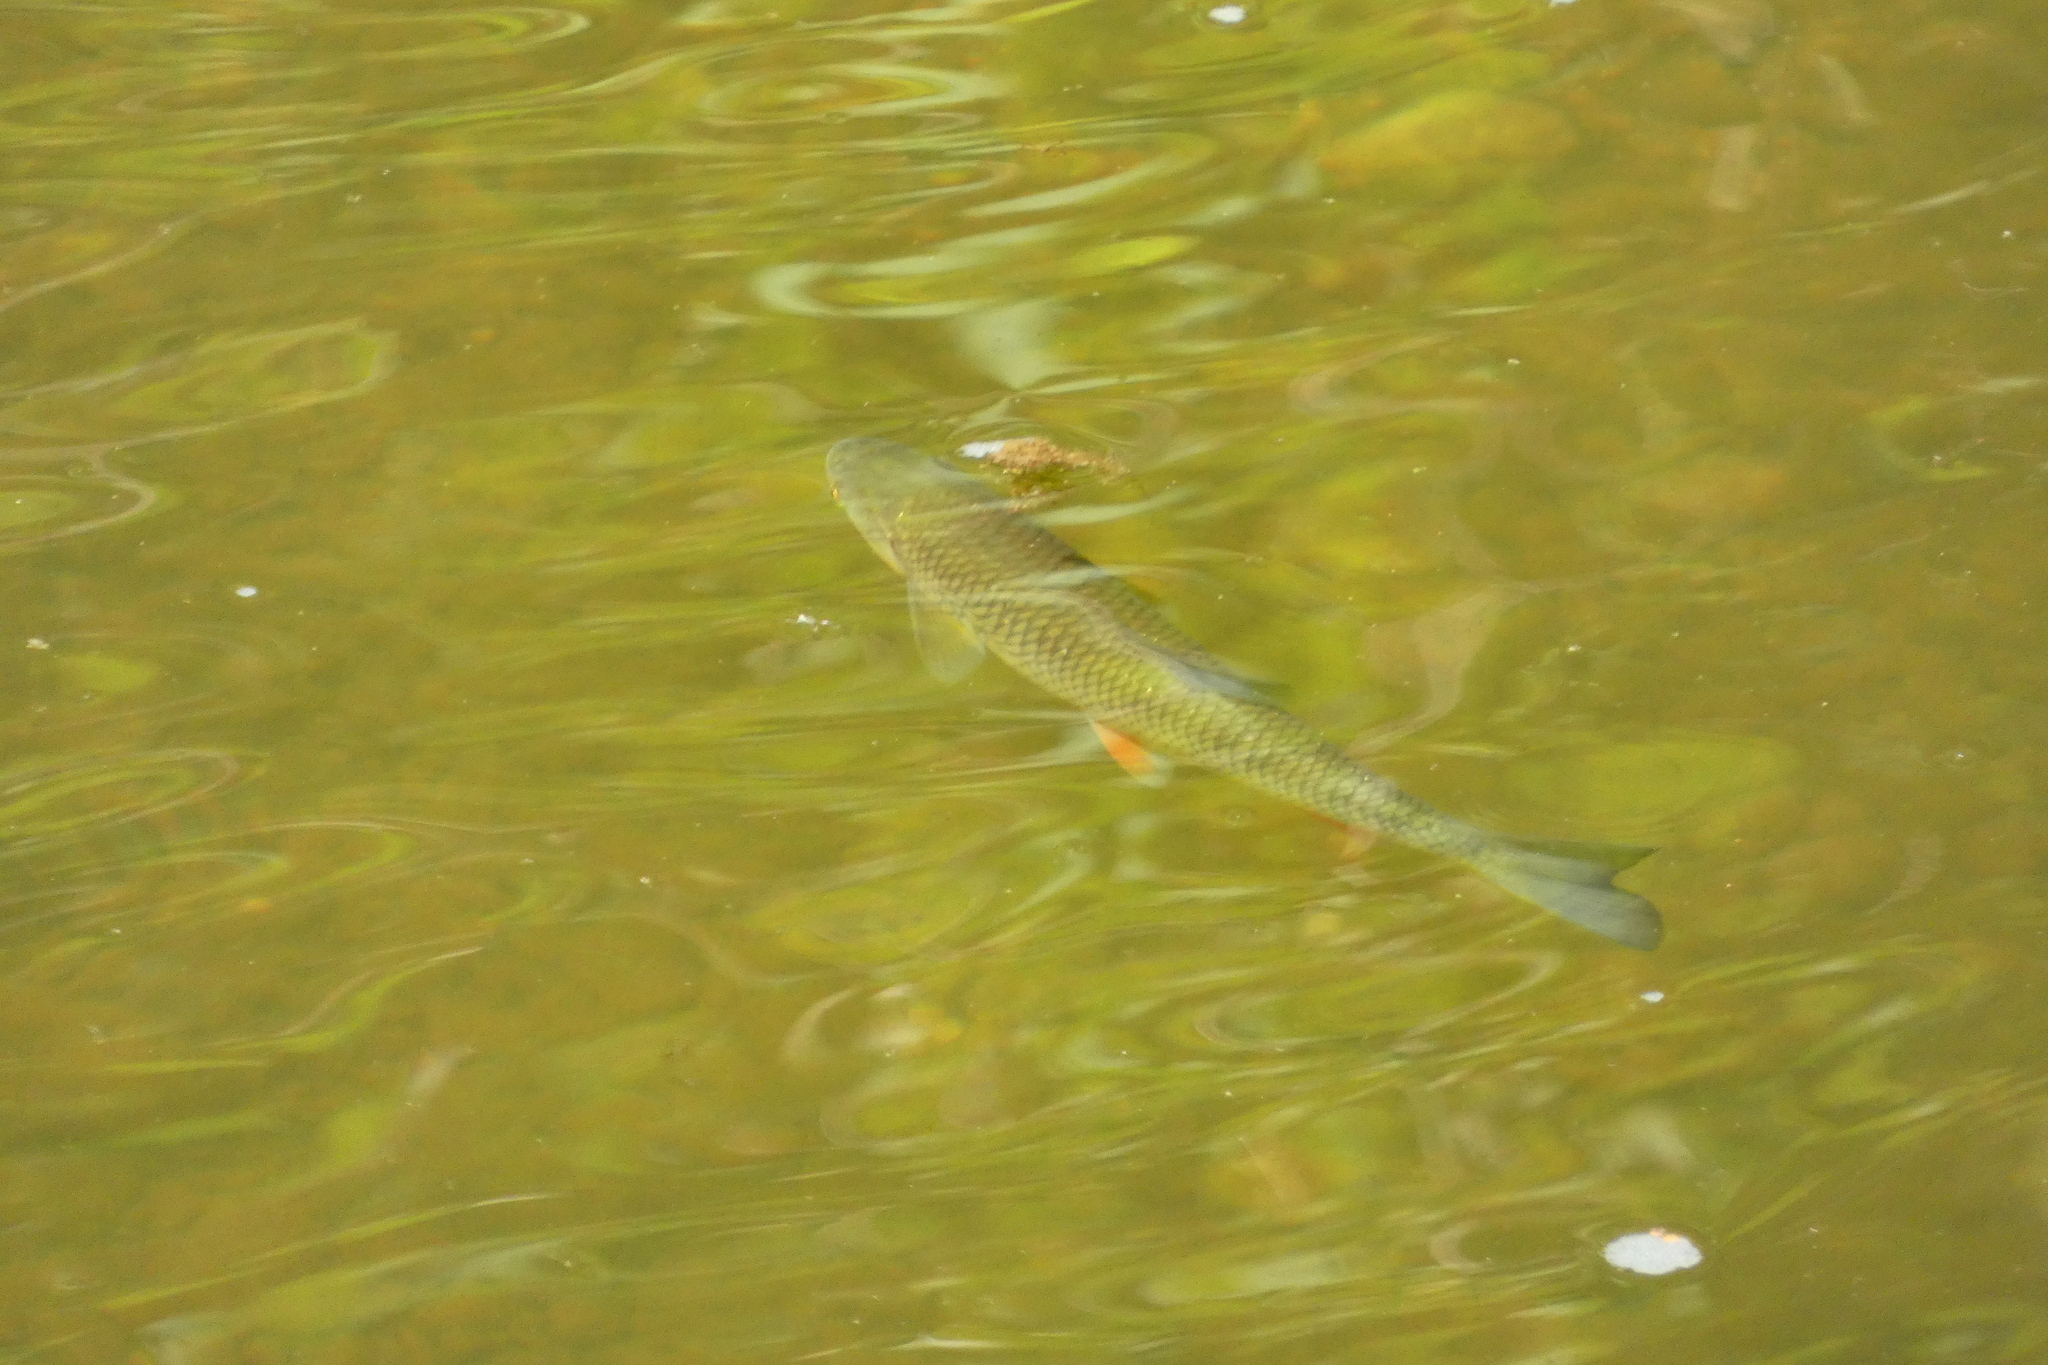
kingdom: Animalia
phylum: Chordata
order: Cypriniformes
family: Cyprinidae
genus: Squalius
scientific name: Squalius cephalus
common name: Chub
